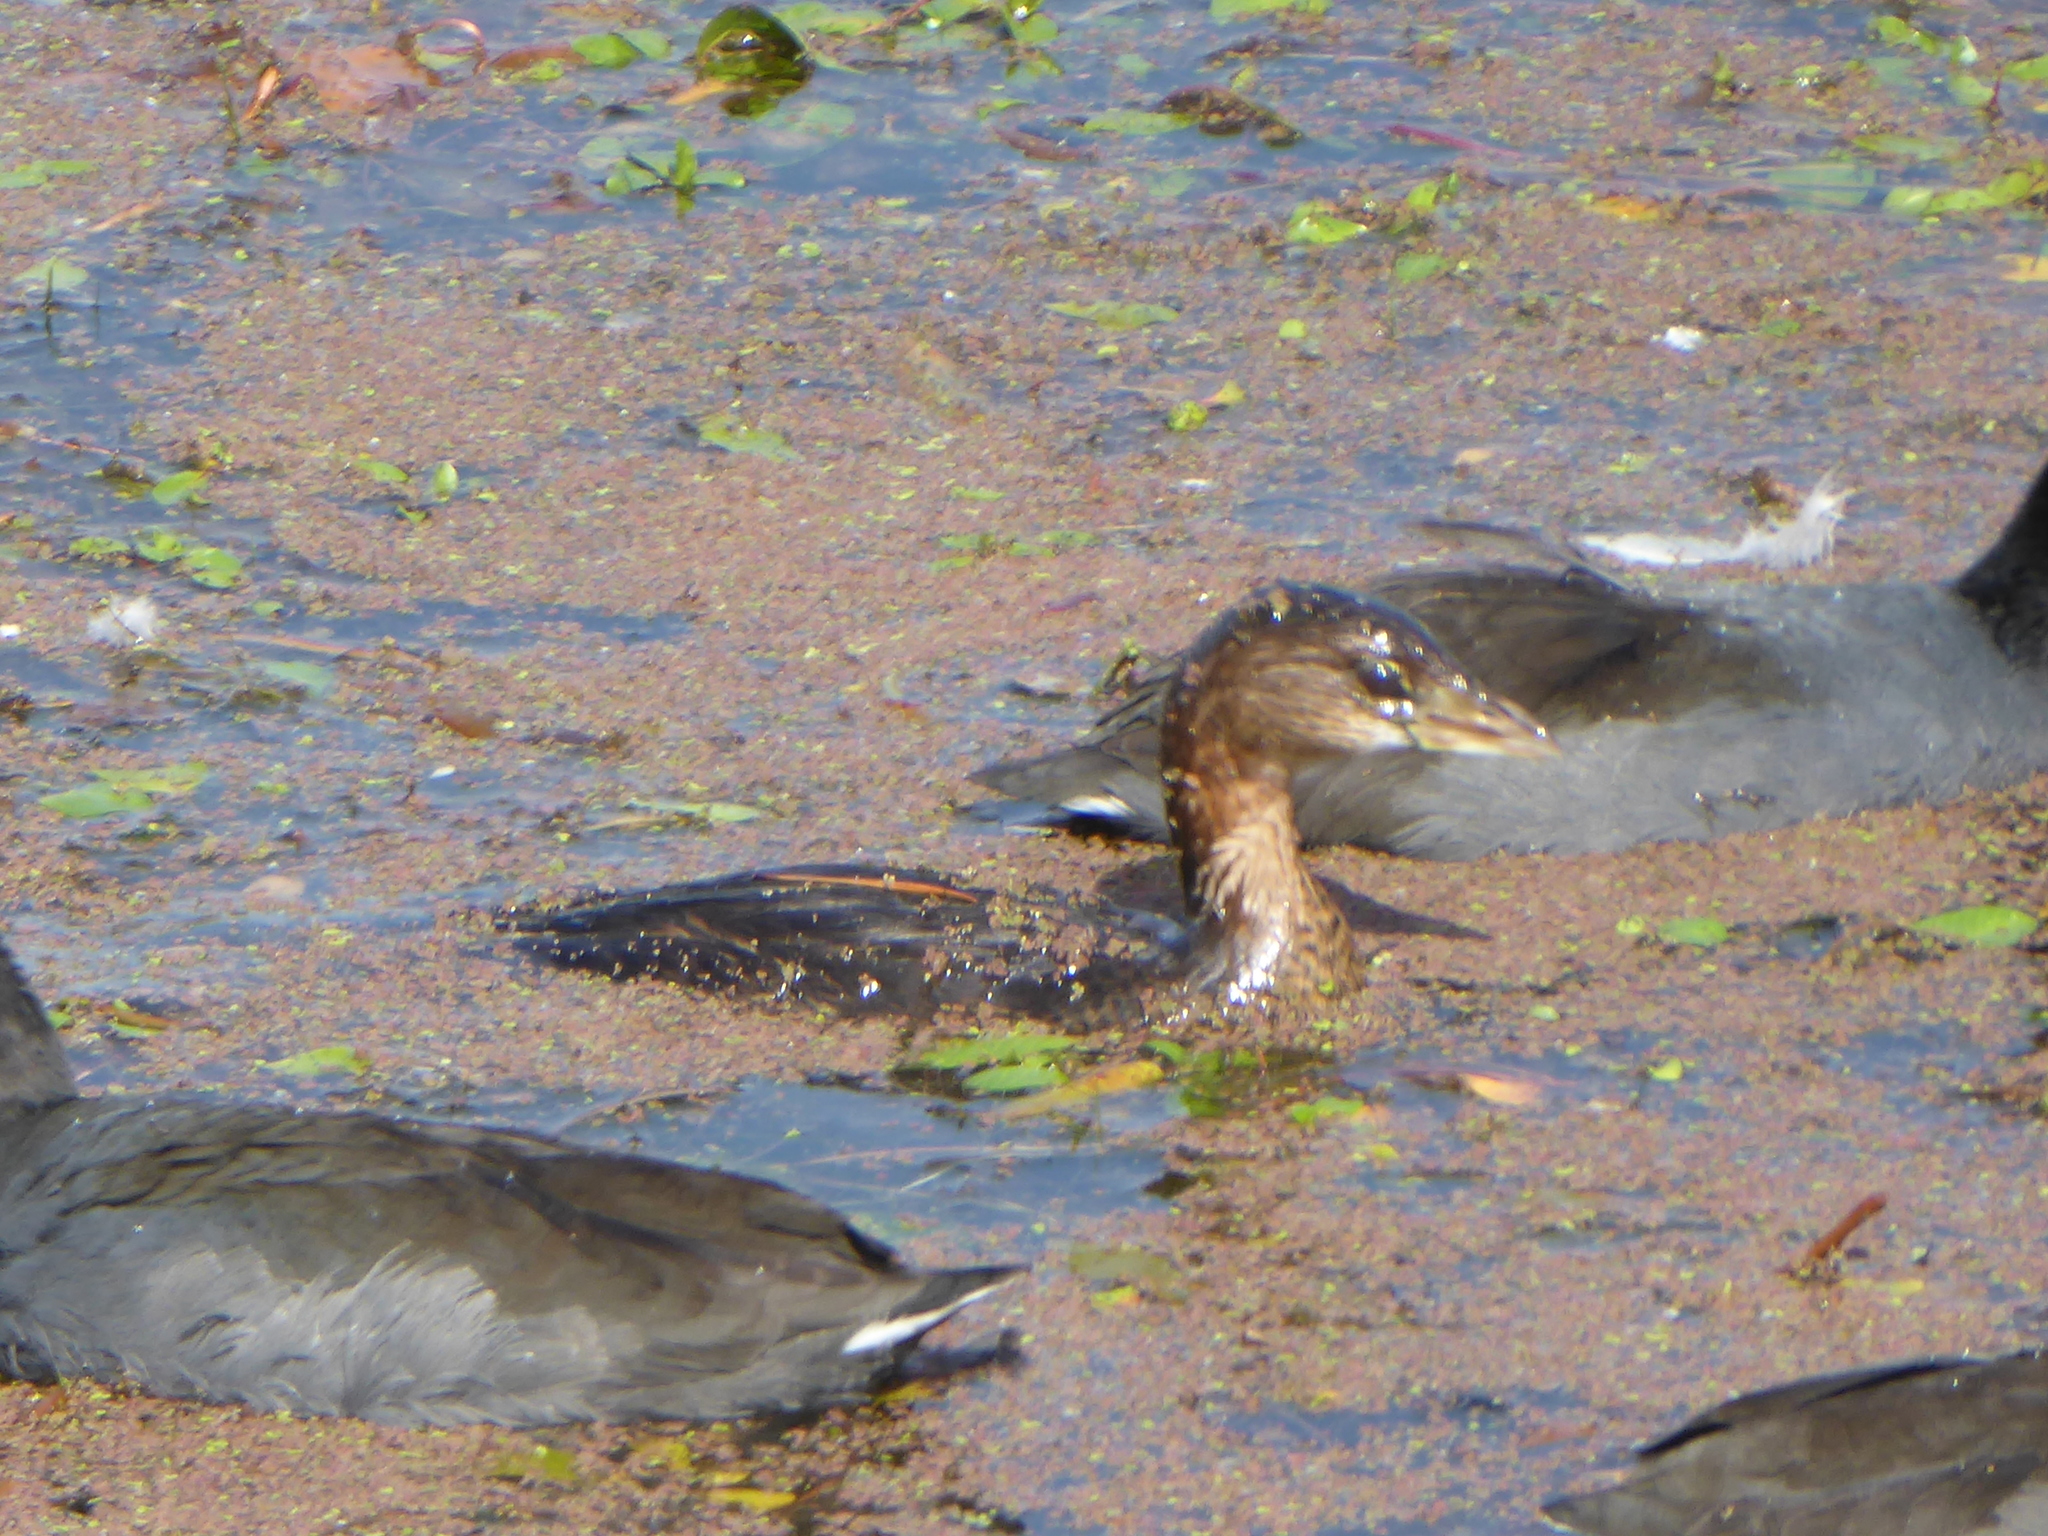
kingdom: Animalia
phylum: Chordata
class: Aves
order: Podicipediformes
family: Podicipedidae
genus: Podilymbus
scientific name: Podilymbus podiceps
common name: Pied-billed grebe
